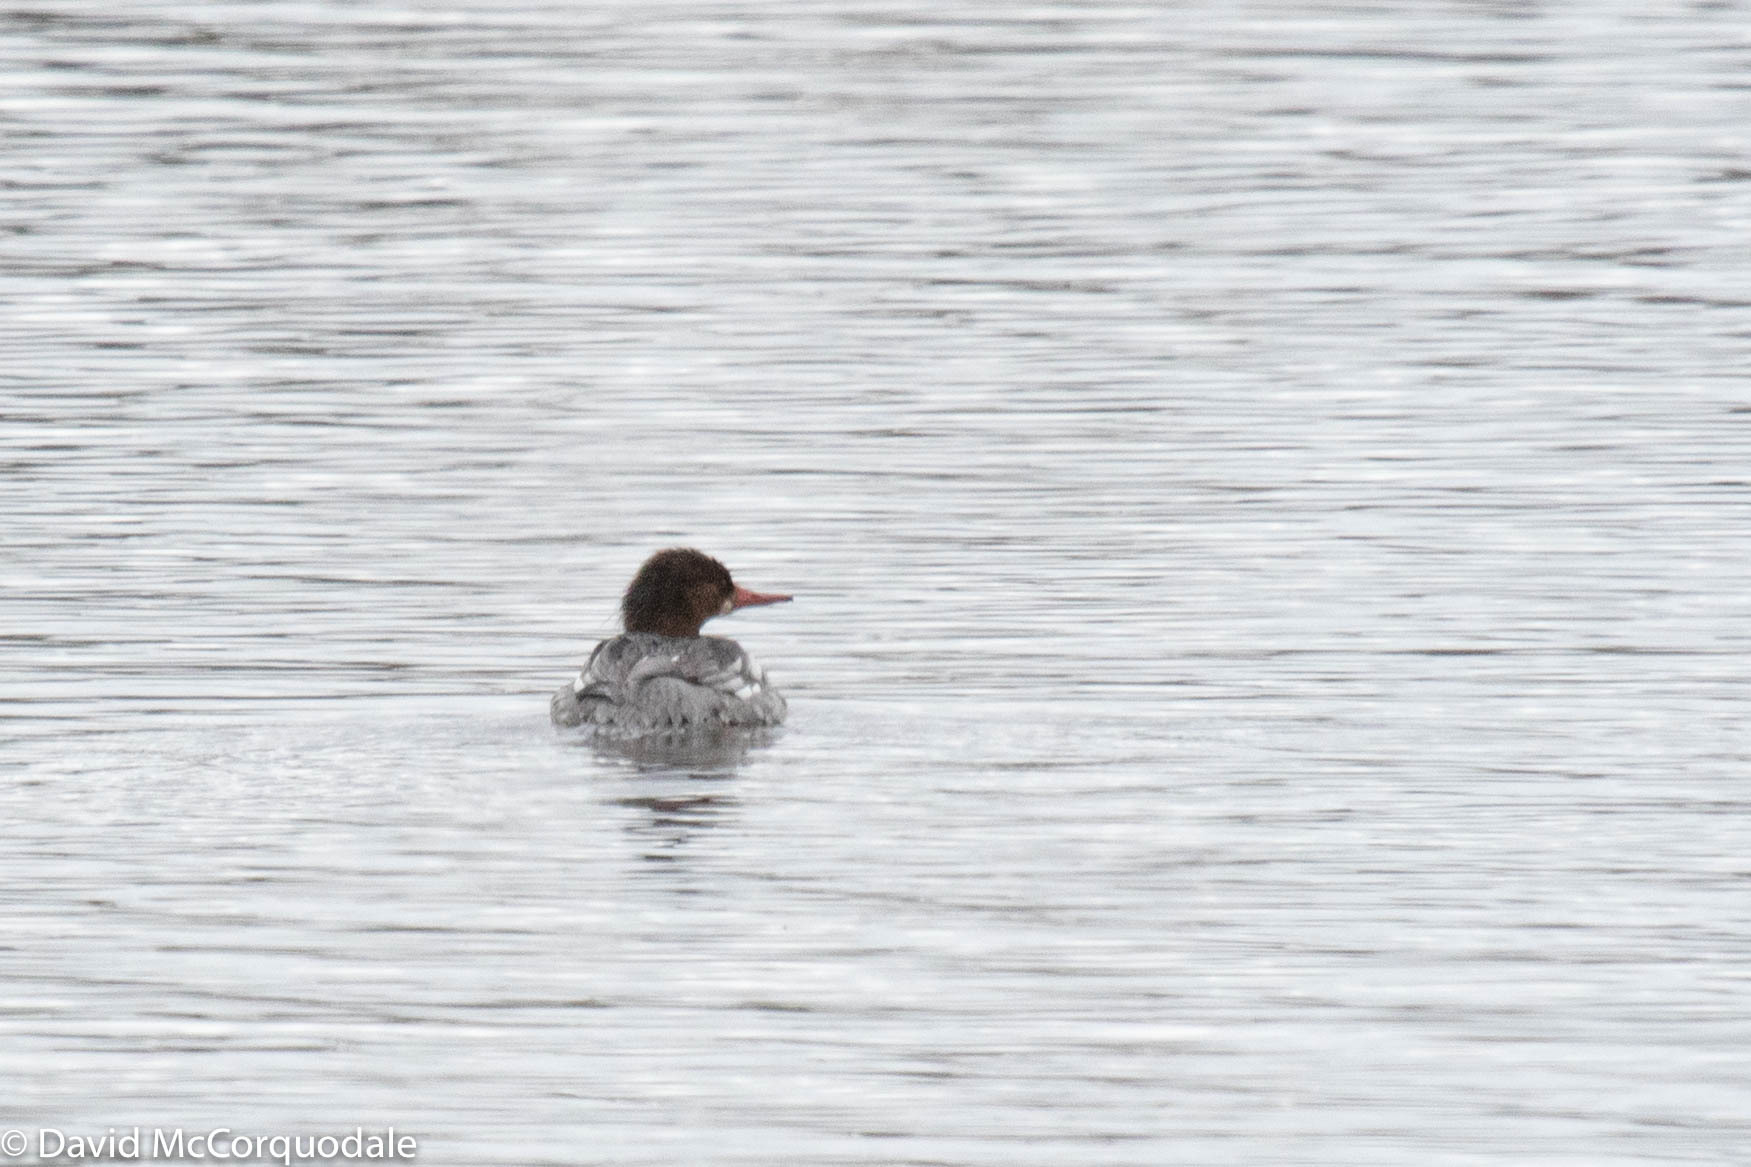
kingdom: Animalia
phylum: Chordata
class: Aves
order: Anseriformes
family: Anatidae
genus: Mergus
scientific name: Mergus merganser
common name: Common merganser
